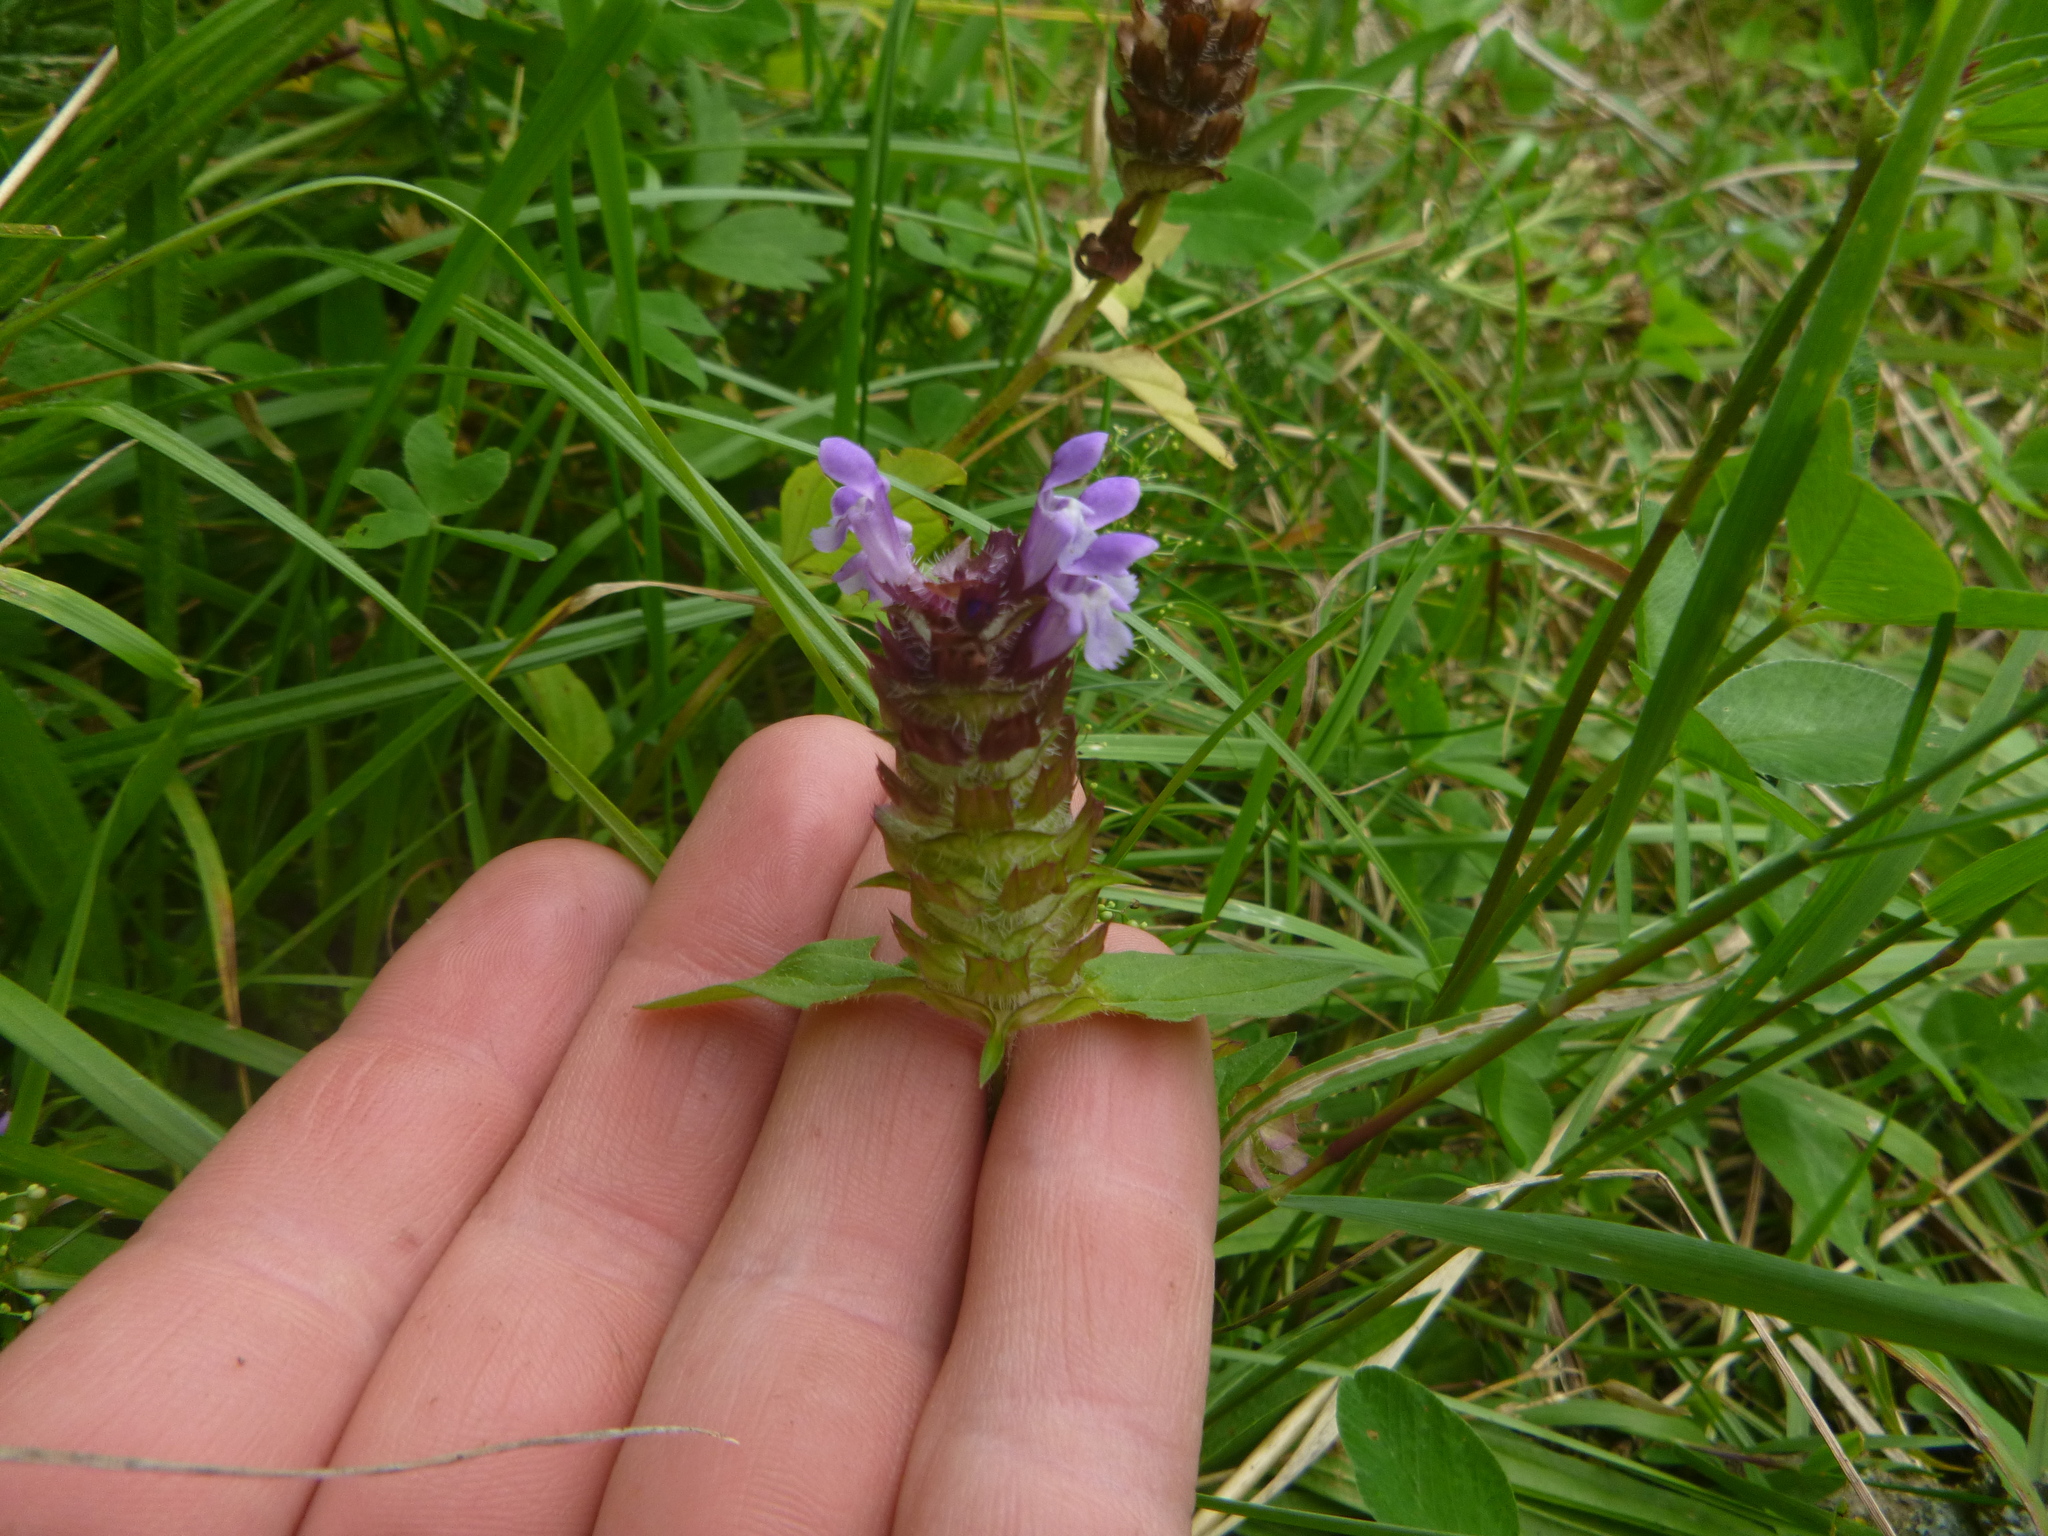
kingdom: Plantae
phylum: Tracheophyta
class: Magnoliopsida
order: Lamiales
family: Lamiaceae
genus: Prunella
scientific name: Prunella vulgaris
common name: Heal-all
